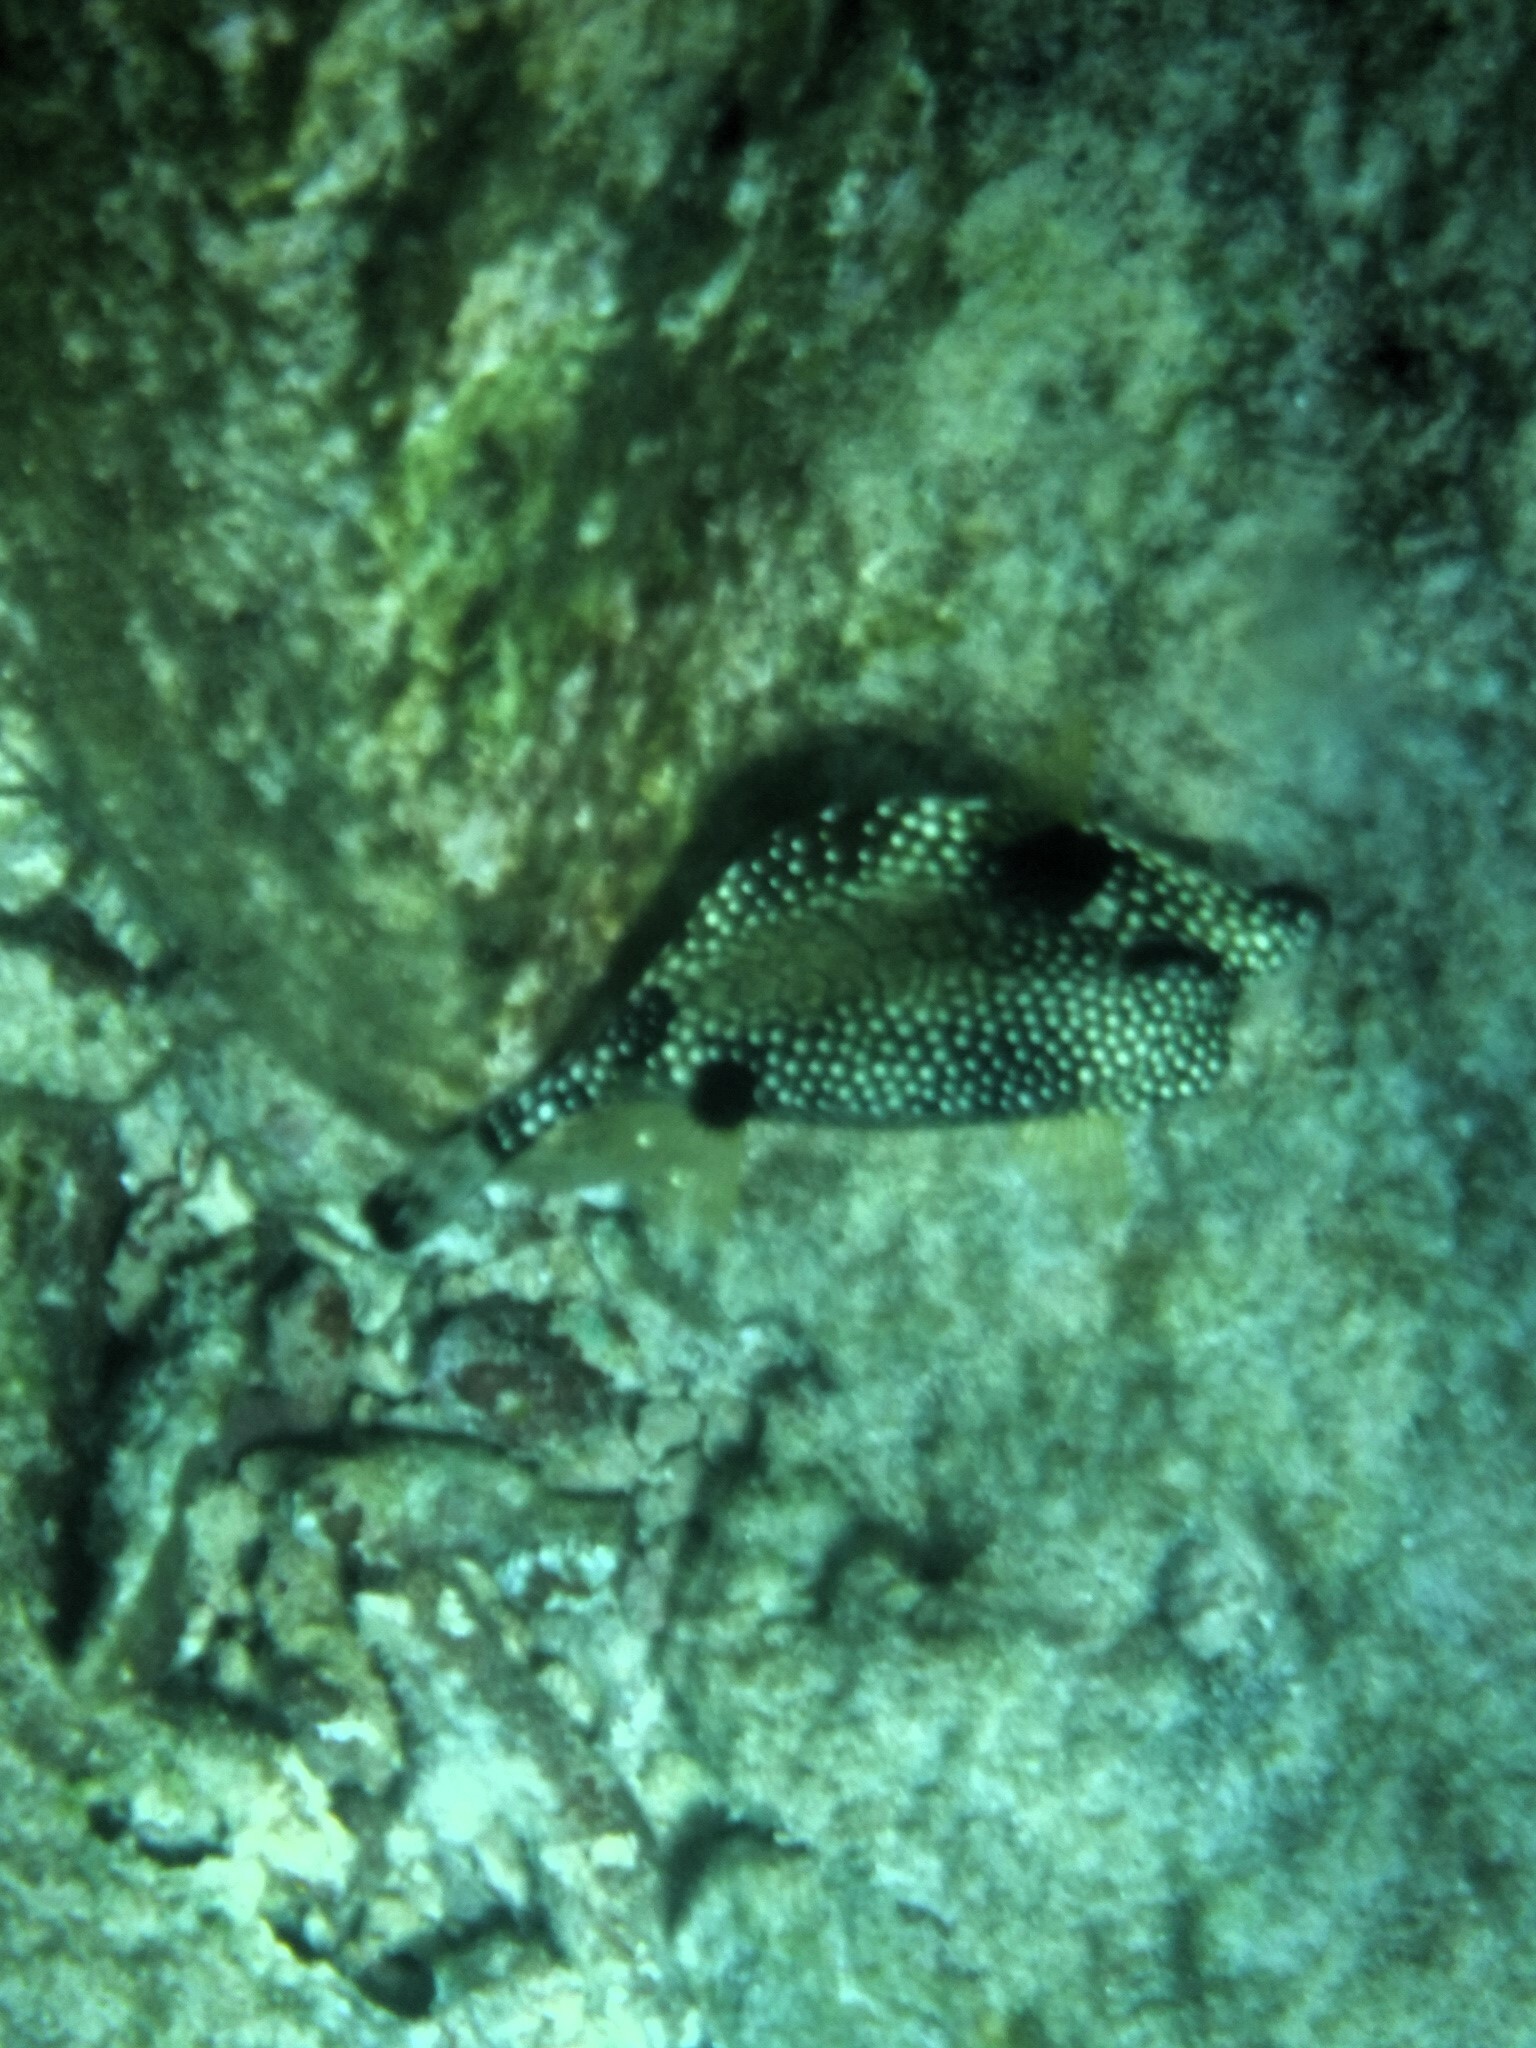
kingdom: Animalia
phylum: Chordata
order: Tetraodontiformes
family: Ostraciidae
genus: Lactophrys
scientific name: Lactophrys triqueter
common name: Smooth trunkfish
